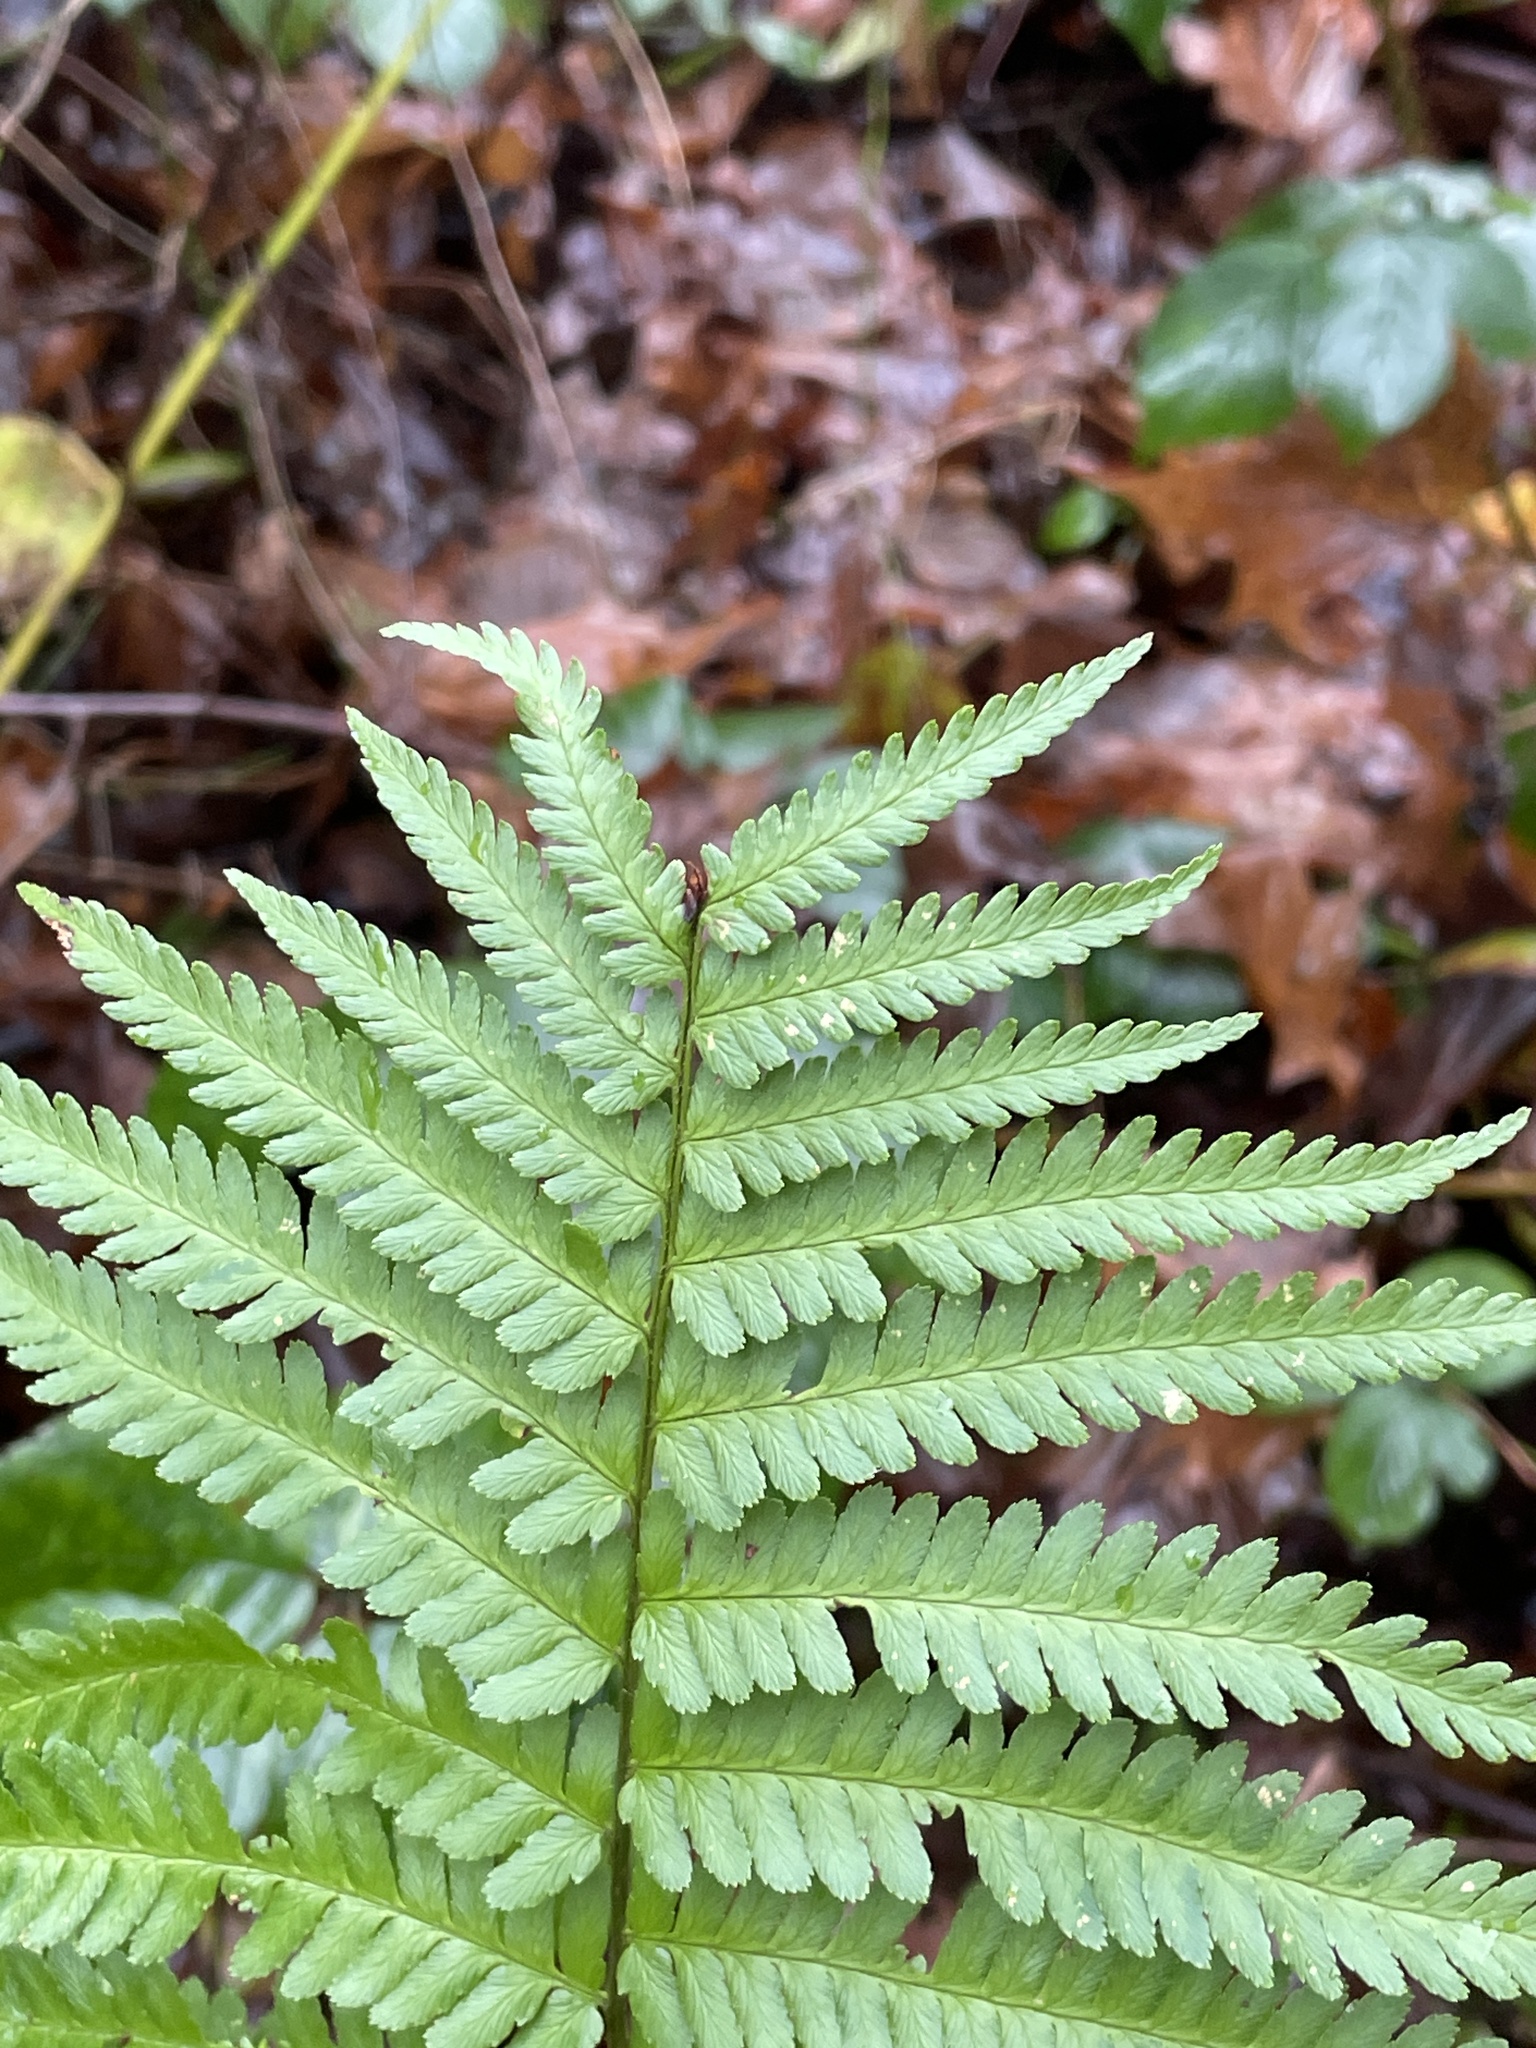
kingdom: Plantae
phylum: Tracheophyta
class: Polypodiopsida
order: Polypodiales
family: Dryopteridaceae
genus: Dryopteris
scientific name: Dryopteris filix-mas
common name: Male fern
